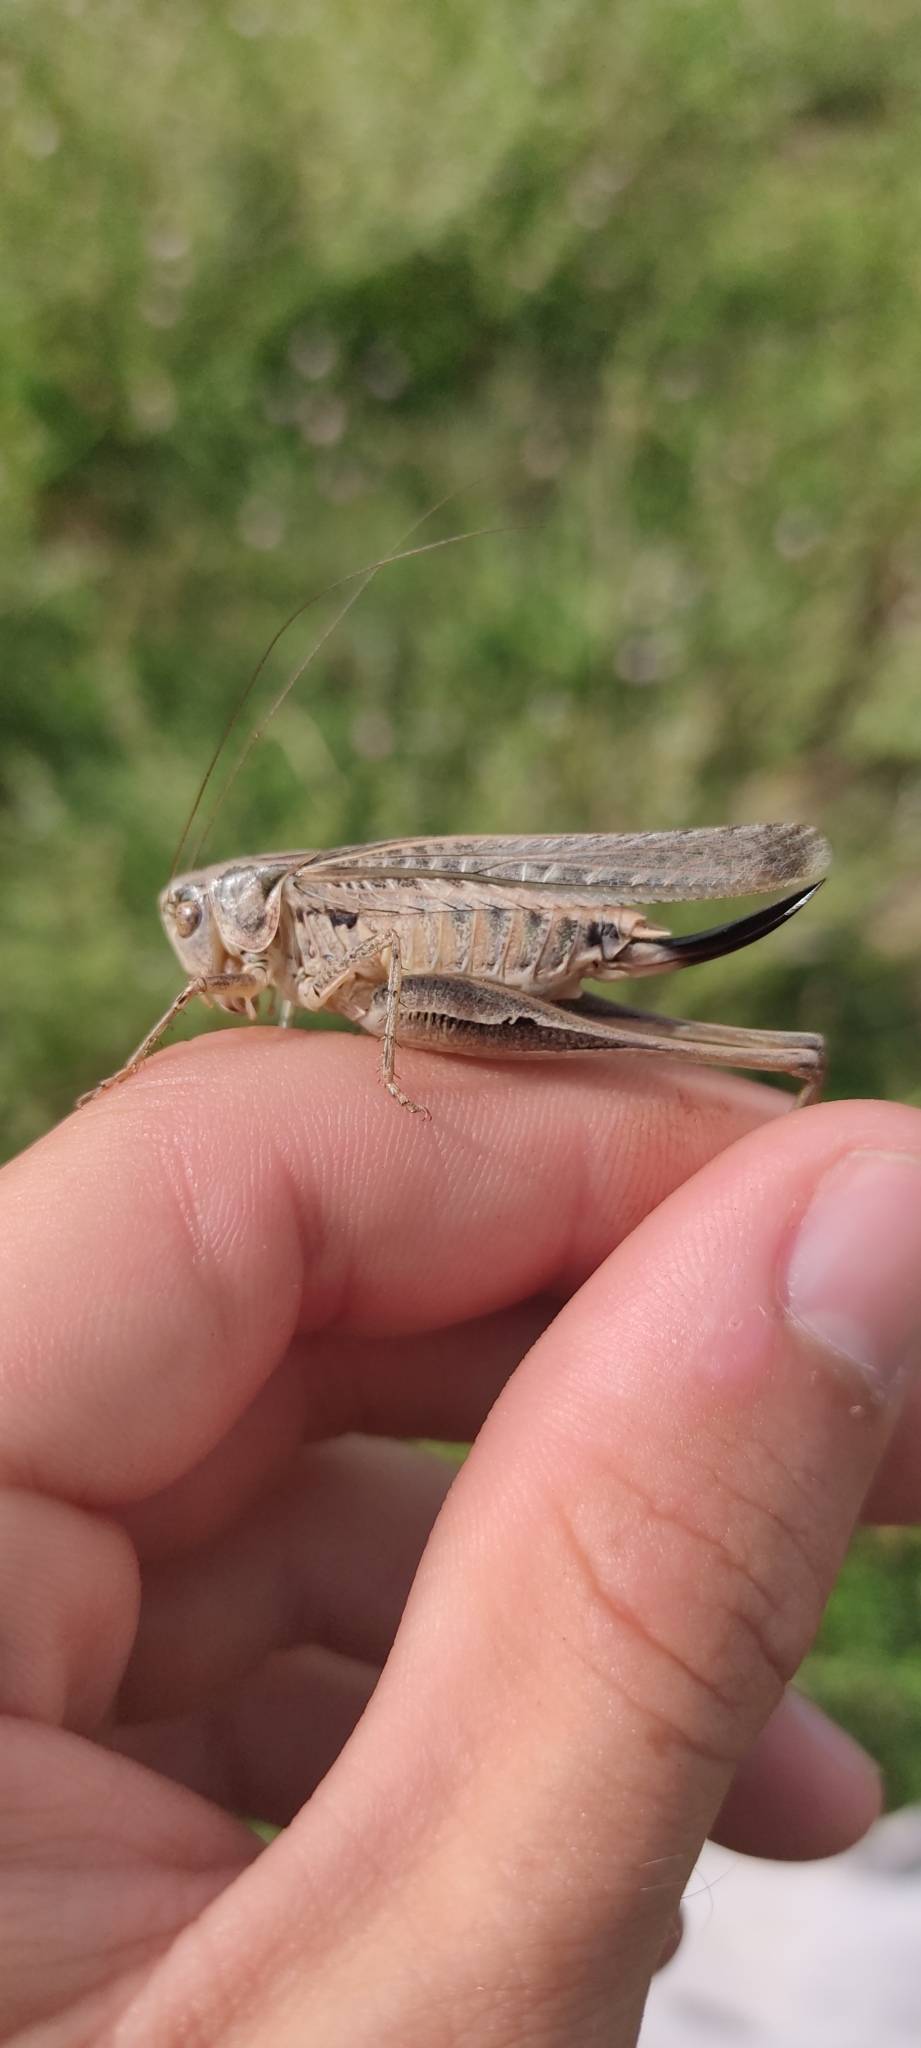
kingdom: Animalia
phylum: Arthropoda
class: Insecta
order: Orthoptera
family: Tettigoniidae
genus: Platycleis
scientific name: Platycleis affinis
